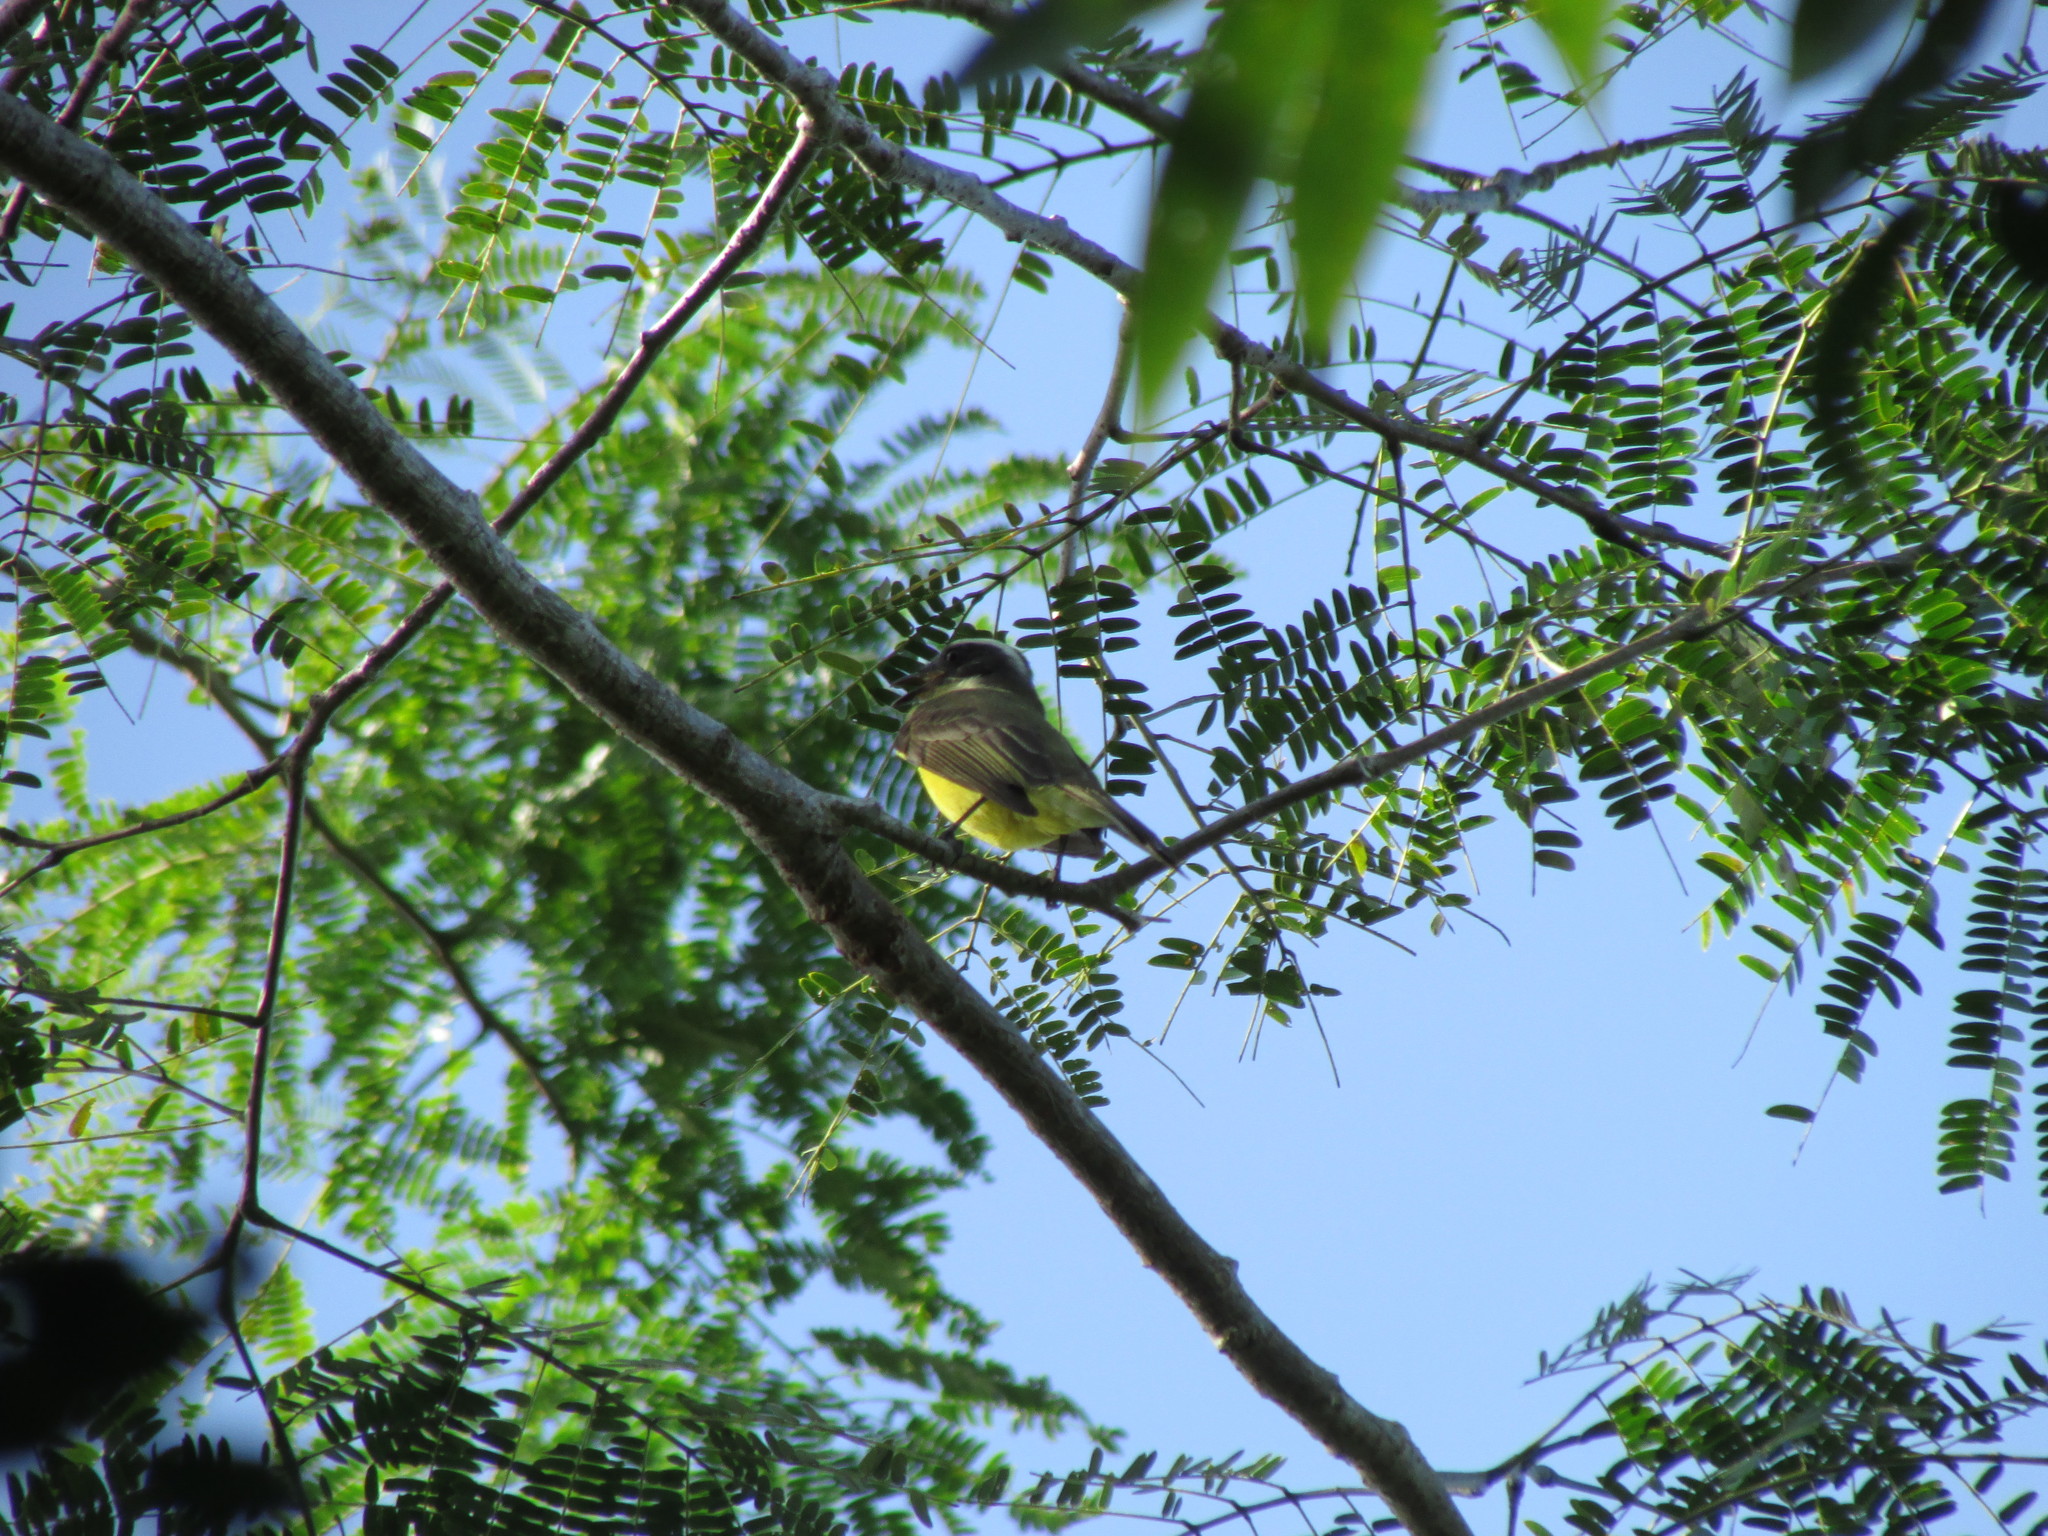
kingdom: Animalia
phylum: Chordata
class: Aves
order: Passeriformes
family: Tyrannidae
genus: Pitangus
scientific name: Pitangus sulphuratus
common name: Great kiskadee
